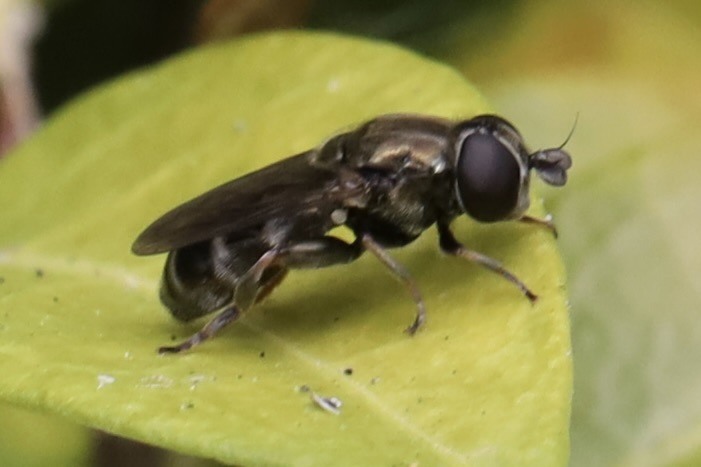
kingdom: Animalia
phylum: Arthropoda
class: Insecta
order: Diptera
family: Syrphidae
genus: Eumerus
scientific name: Eumerus
